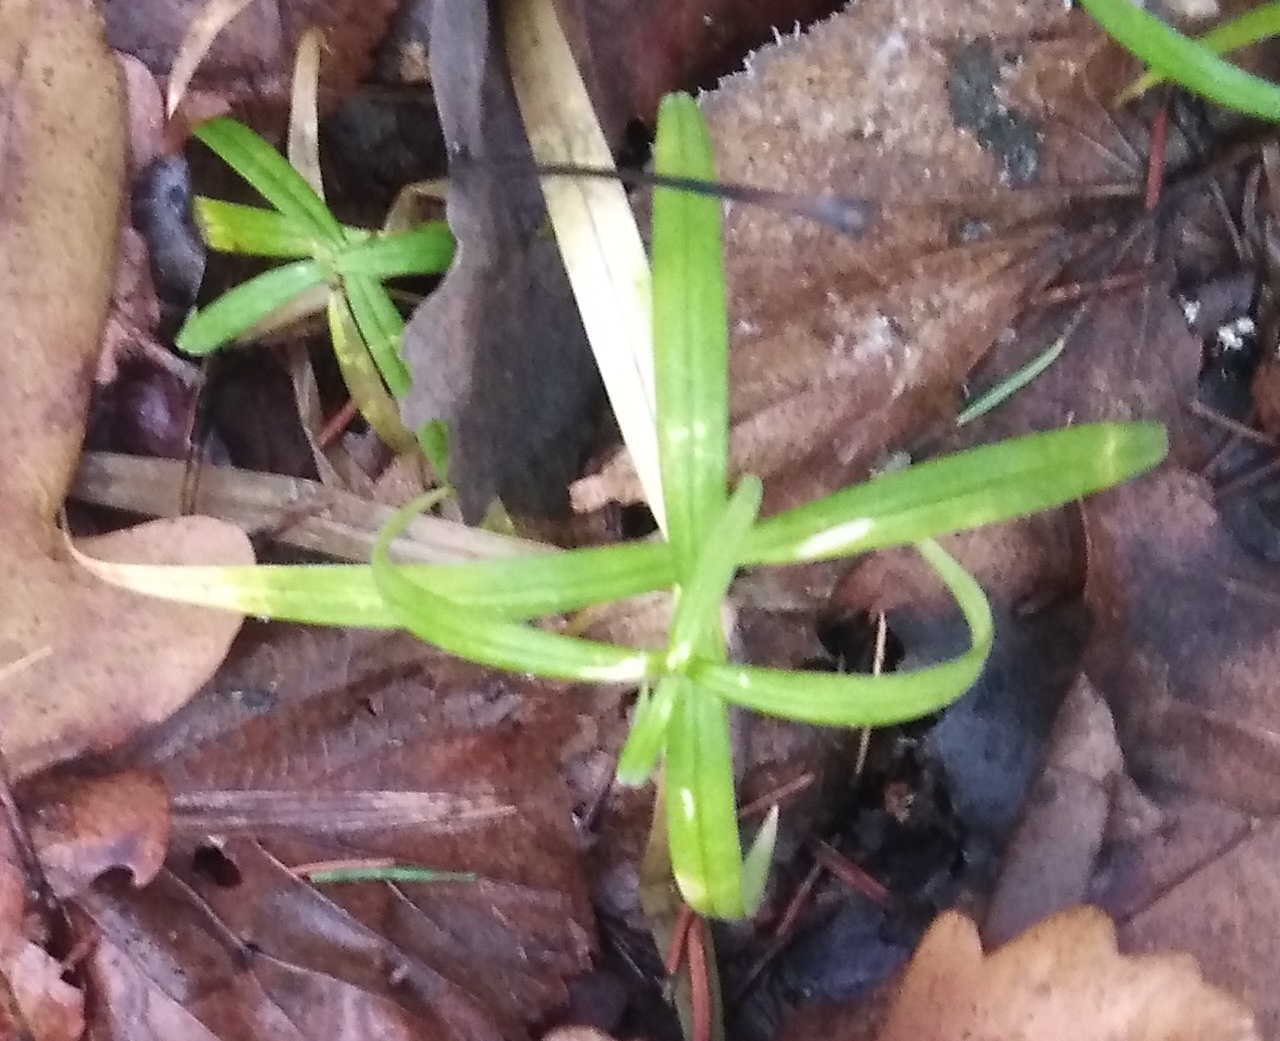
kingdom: Plantae
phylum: Tracheophyta
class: Magnoliopsida
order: Caryophyllales
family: Caryophyllaceae
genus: Rabelera
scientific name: Rabelera holostea
